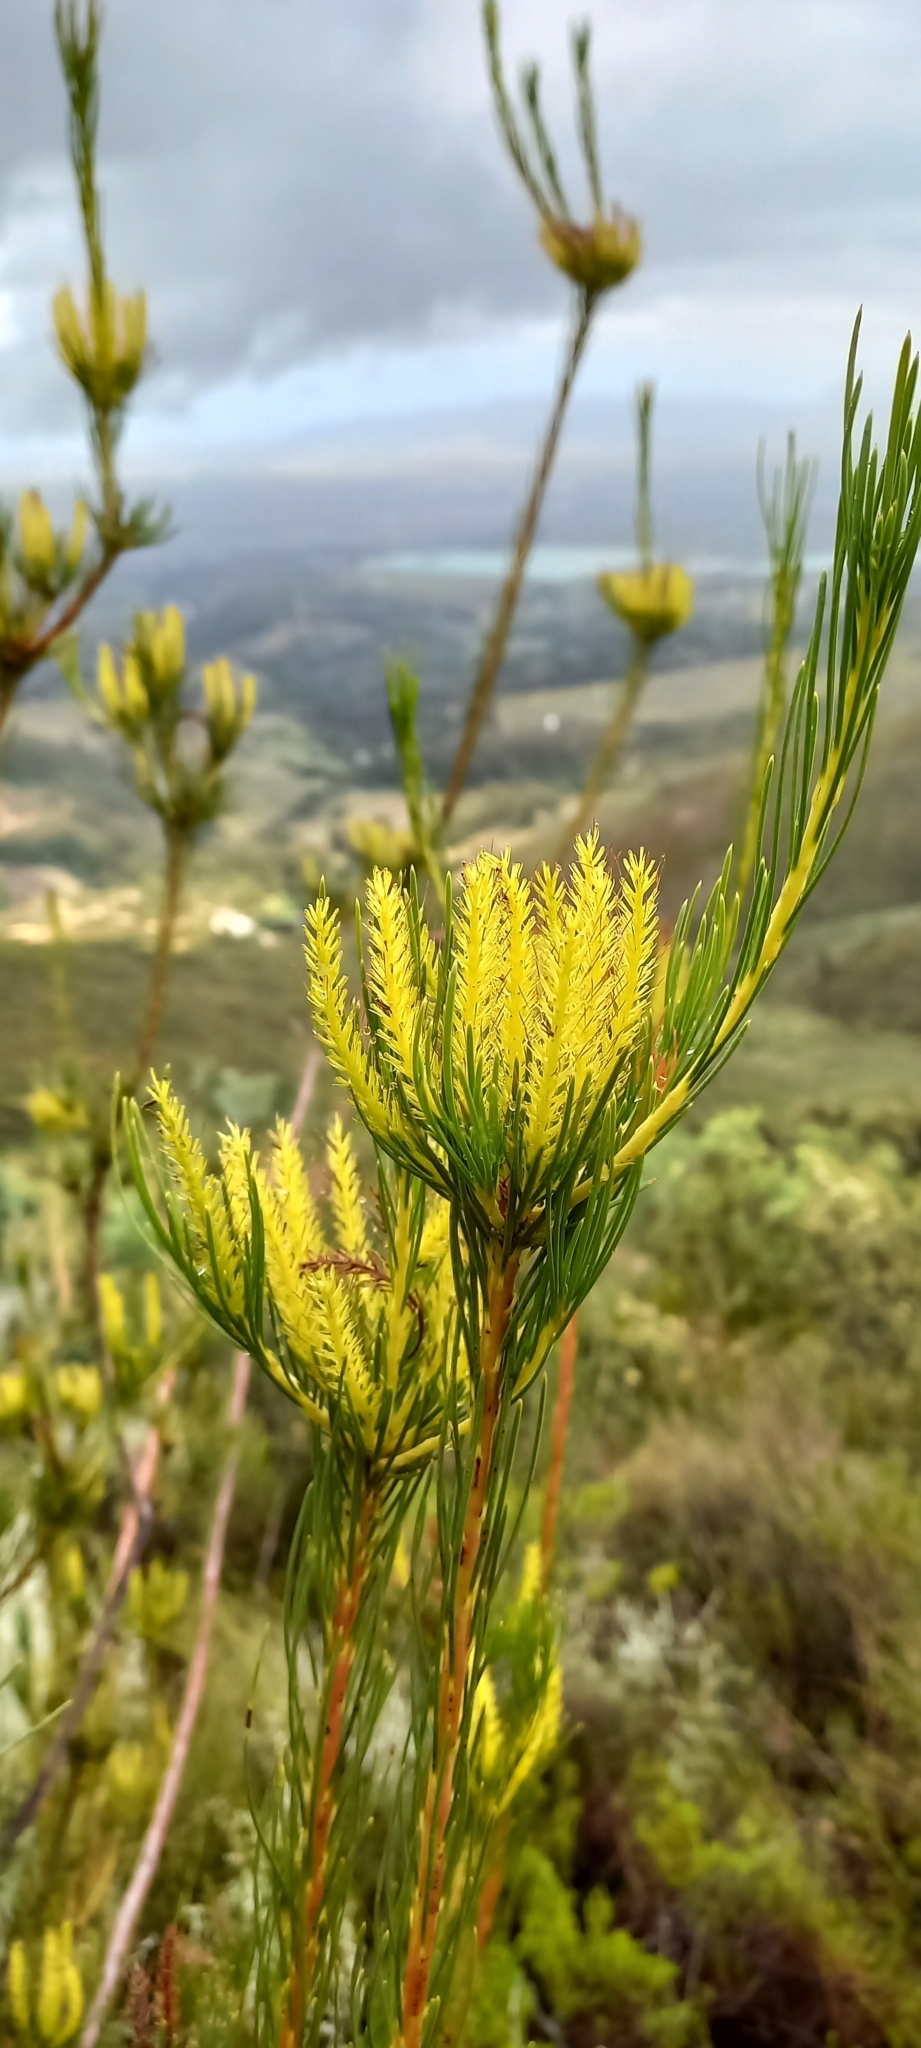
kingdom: Plantae
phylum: Tracheophyta
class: Magnoliopsida
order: Proteales
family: Proteaceae
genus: Aulax
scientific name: Aulax pallasia
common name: Needle-leaf featherbush
